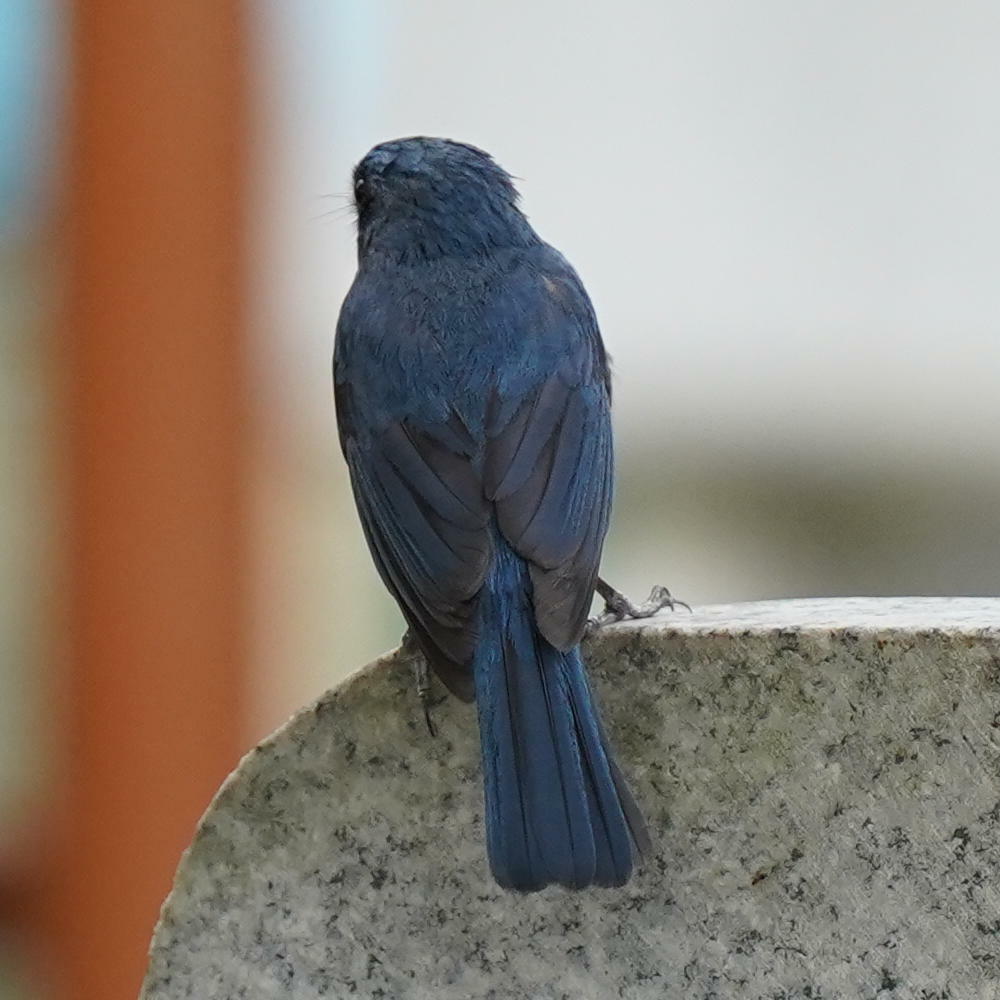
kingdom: Animalia
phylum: Chordata
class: Aves
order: Passeriformes
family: Muscicapidae
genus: Cyornis
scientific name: Cyornis tickelliae
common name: Tickell's blue flycatcher
